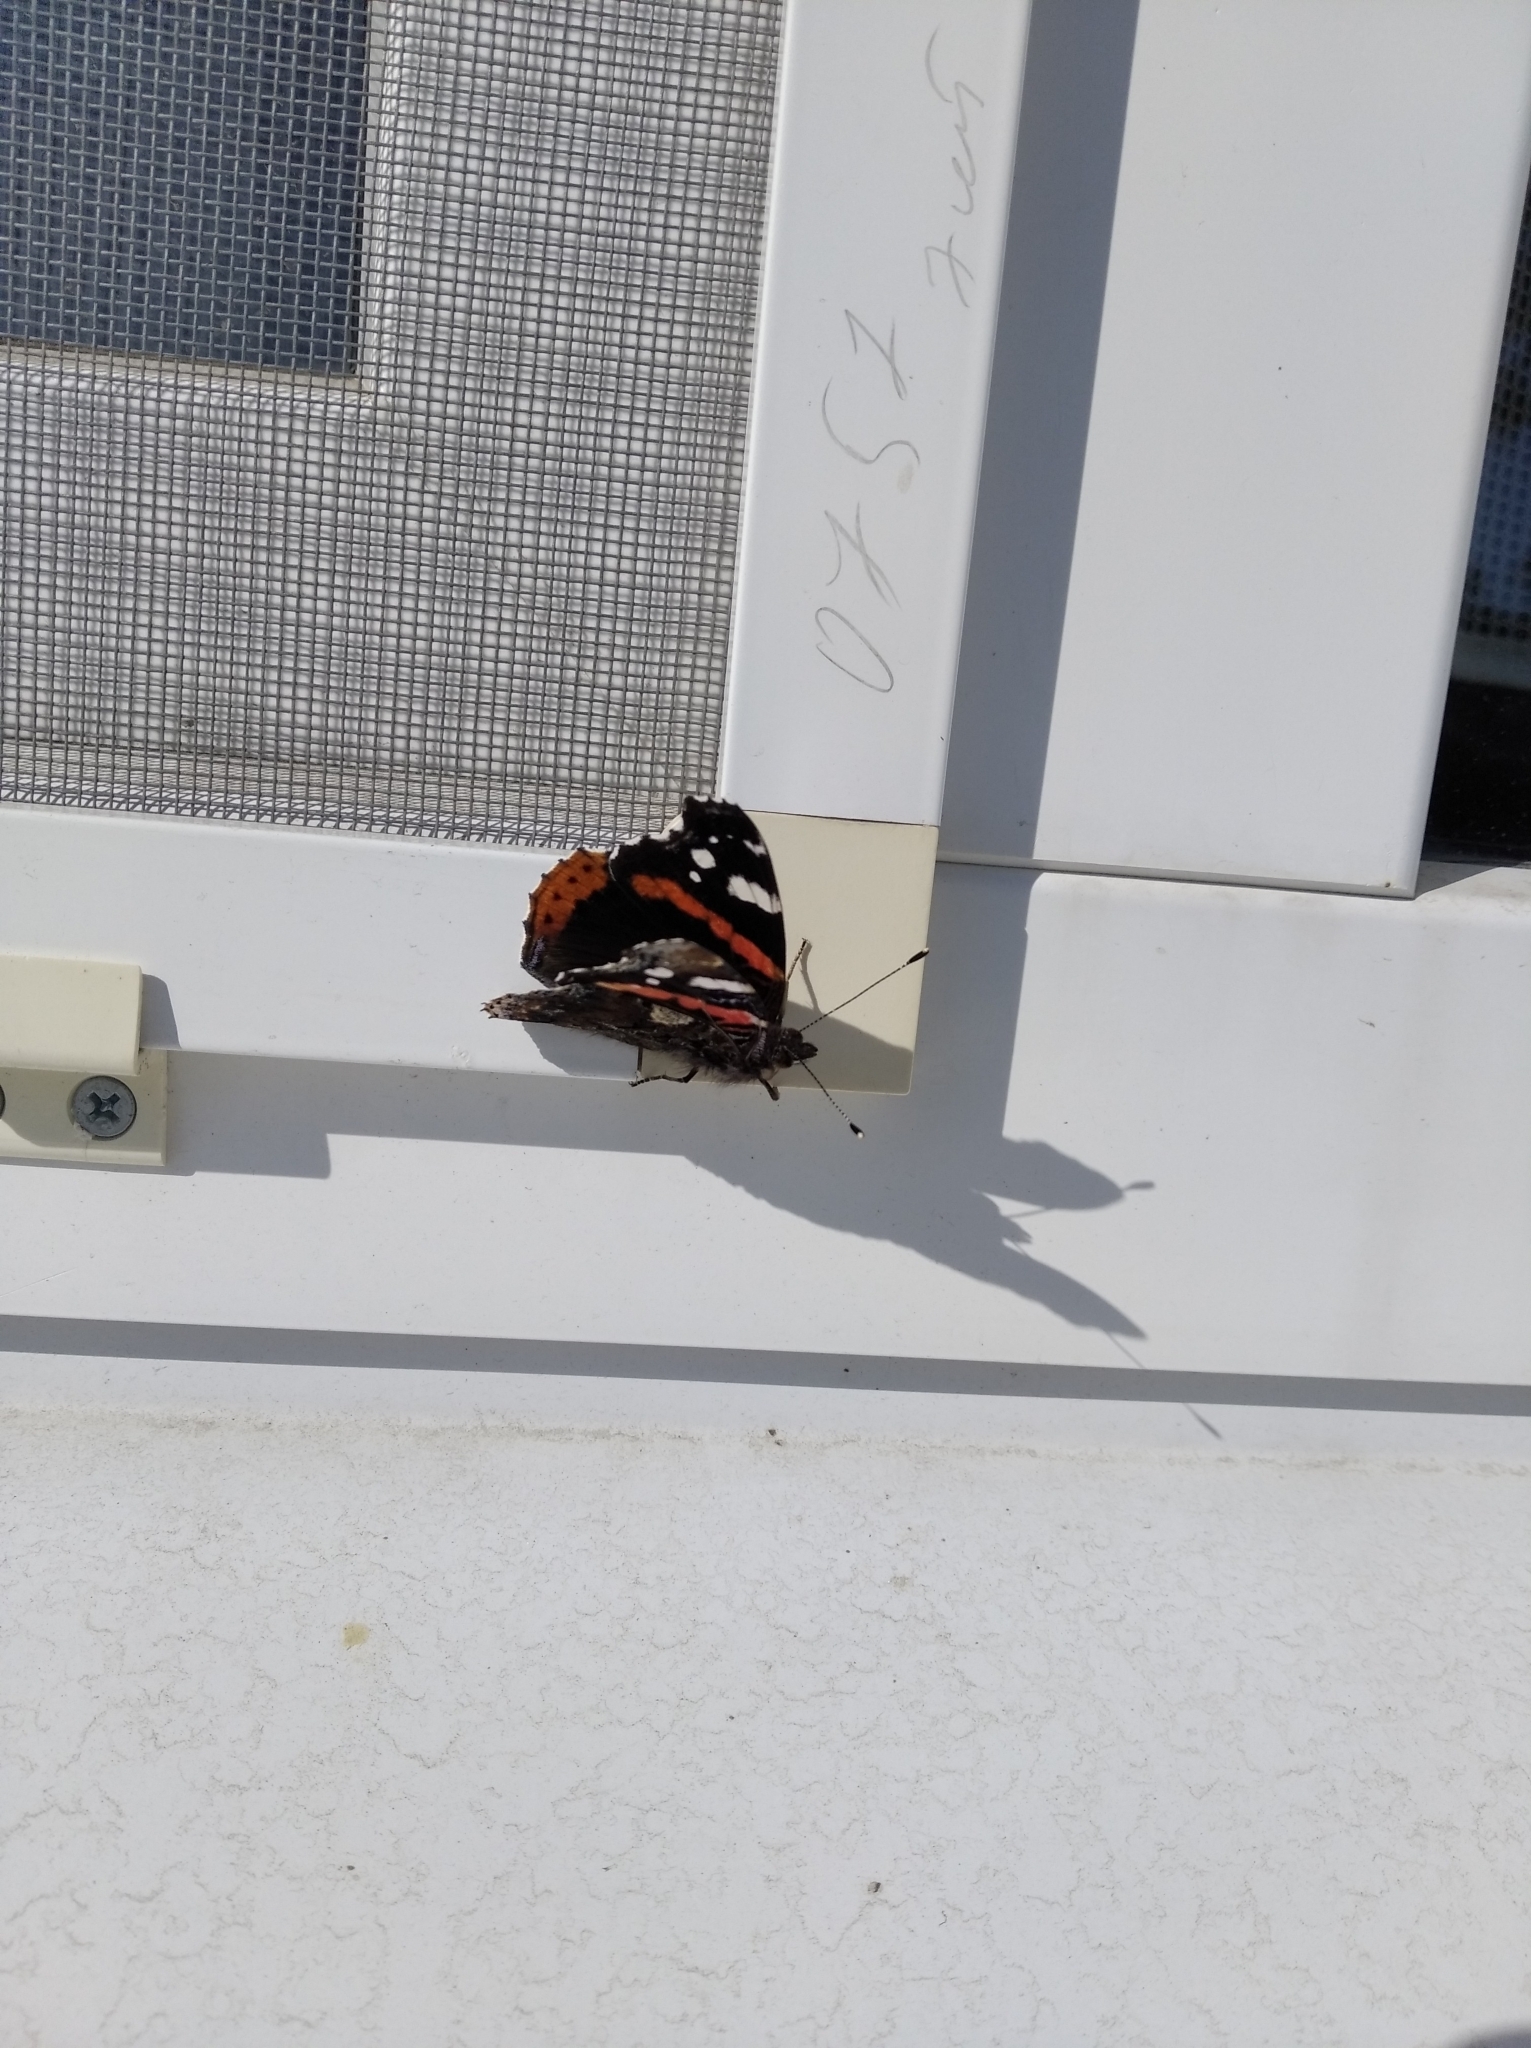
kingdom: Animalia
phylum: Arthropoda
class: Insecta
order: Lepidoptera
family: Nymphalidae
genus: Vanessa
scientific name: Vanessa atalanta
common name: Red admiral
